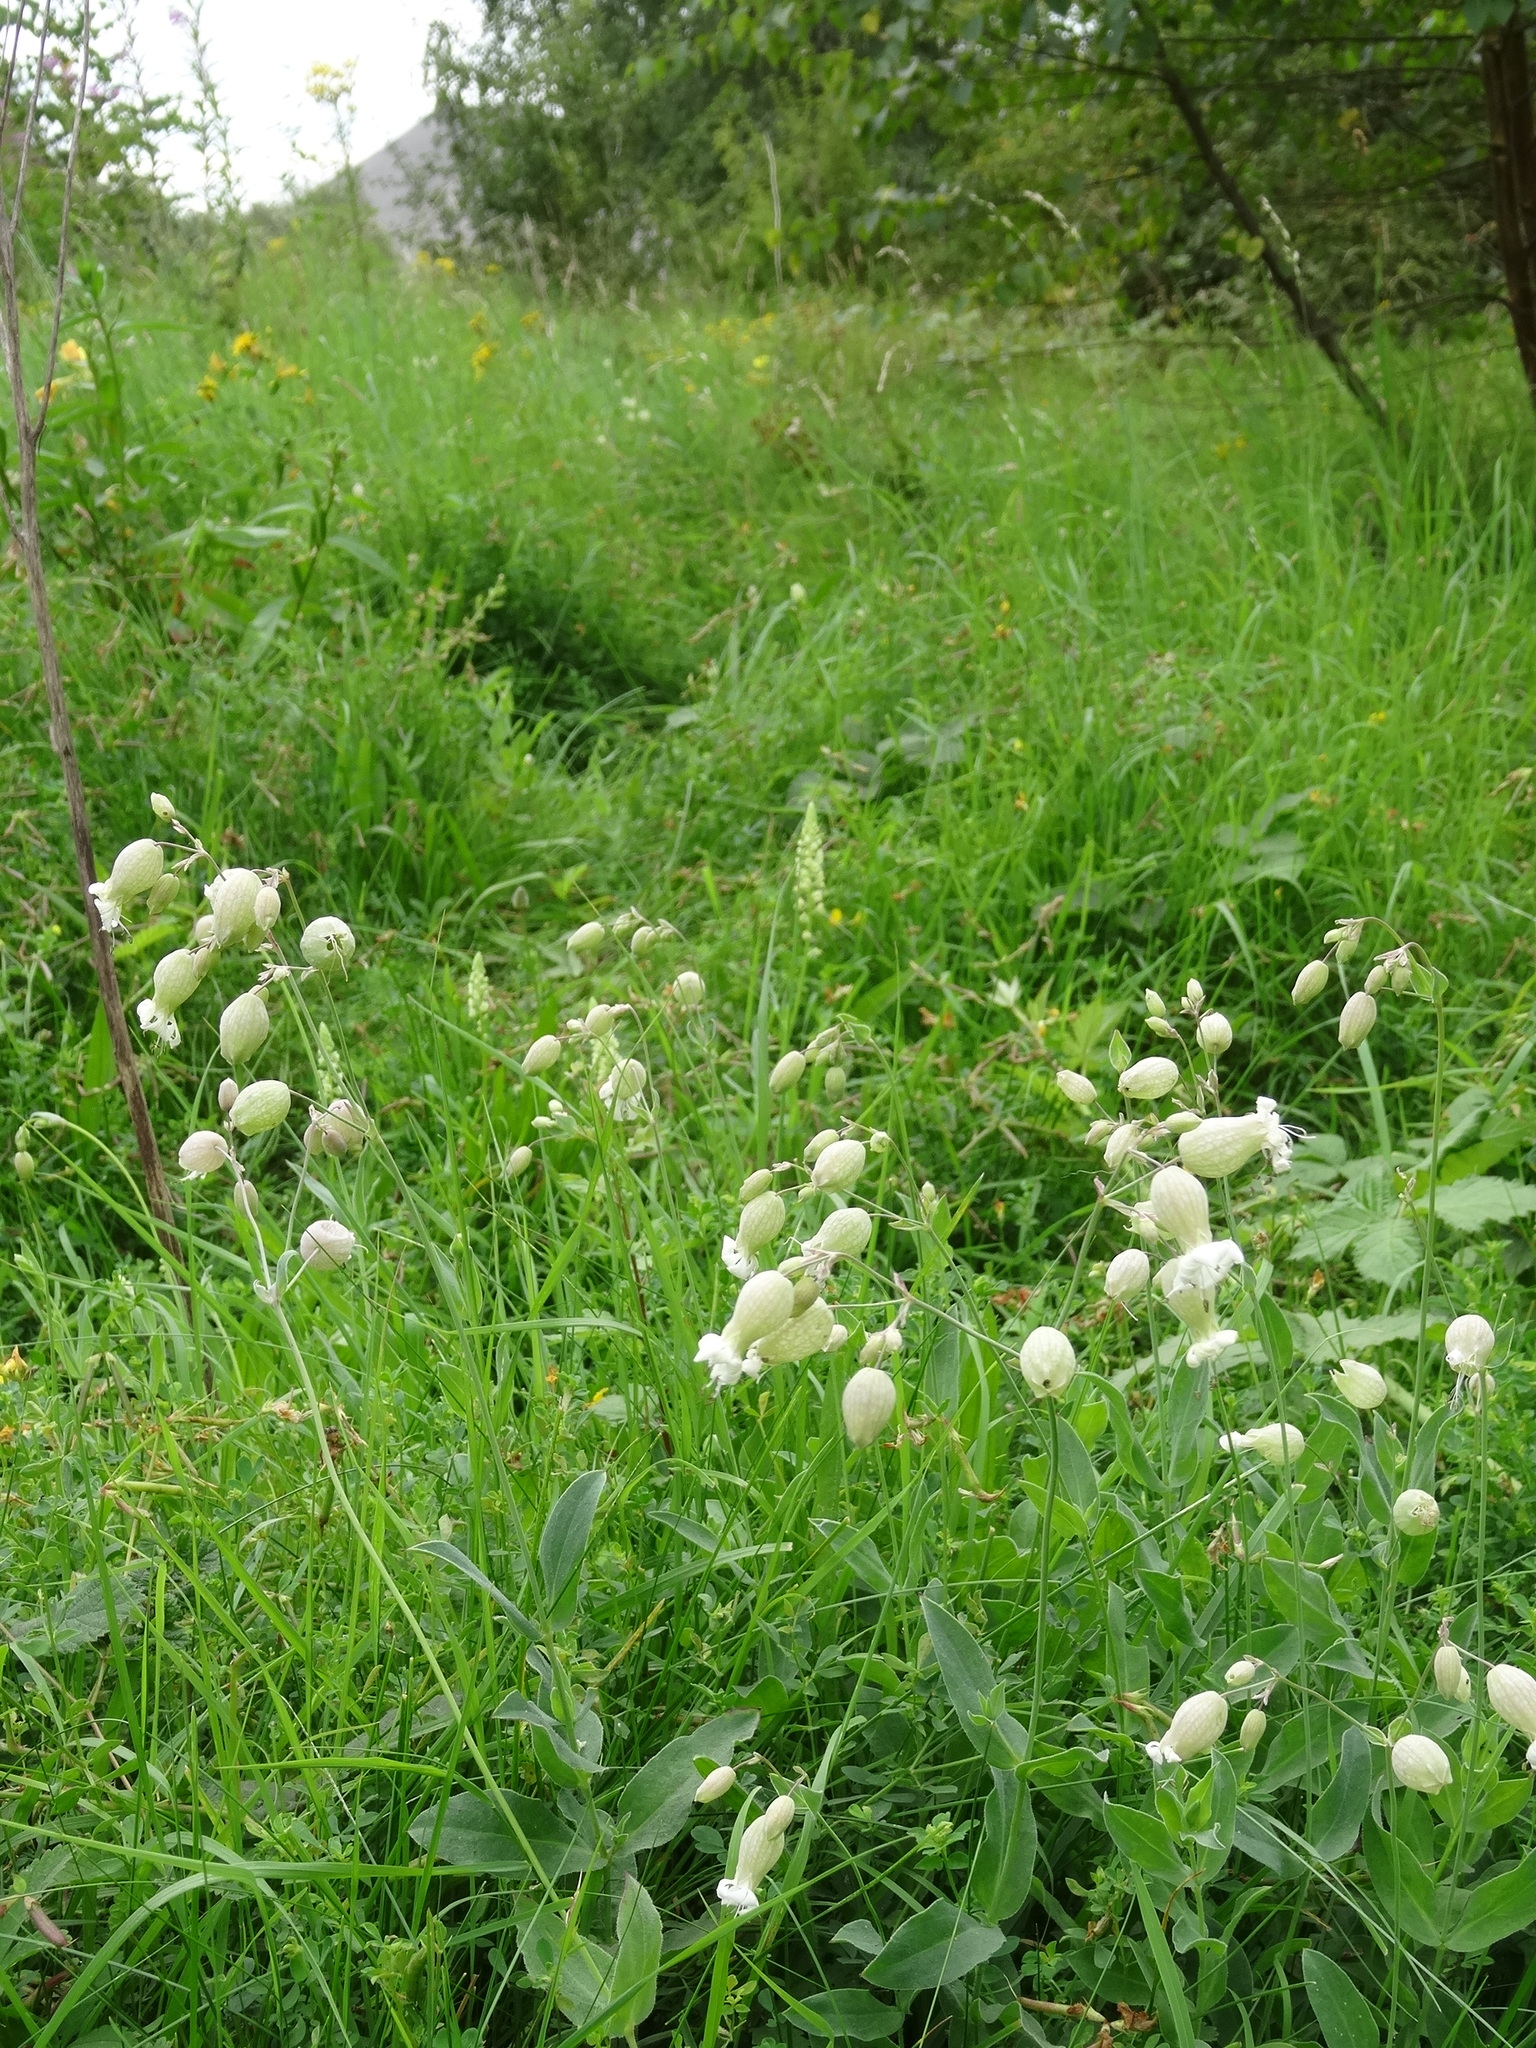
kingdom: Plantae
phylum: Tracheophyta
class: Magnoliopsida
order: Caryophyllales
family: Caryophyllaceae
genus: Silene
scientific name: Silene vulgaris
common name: Bladder campion
